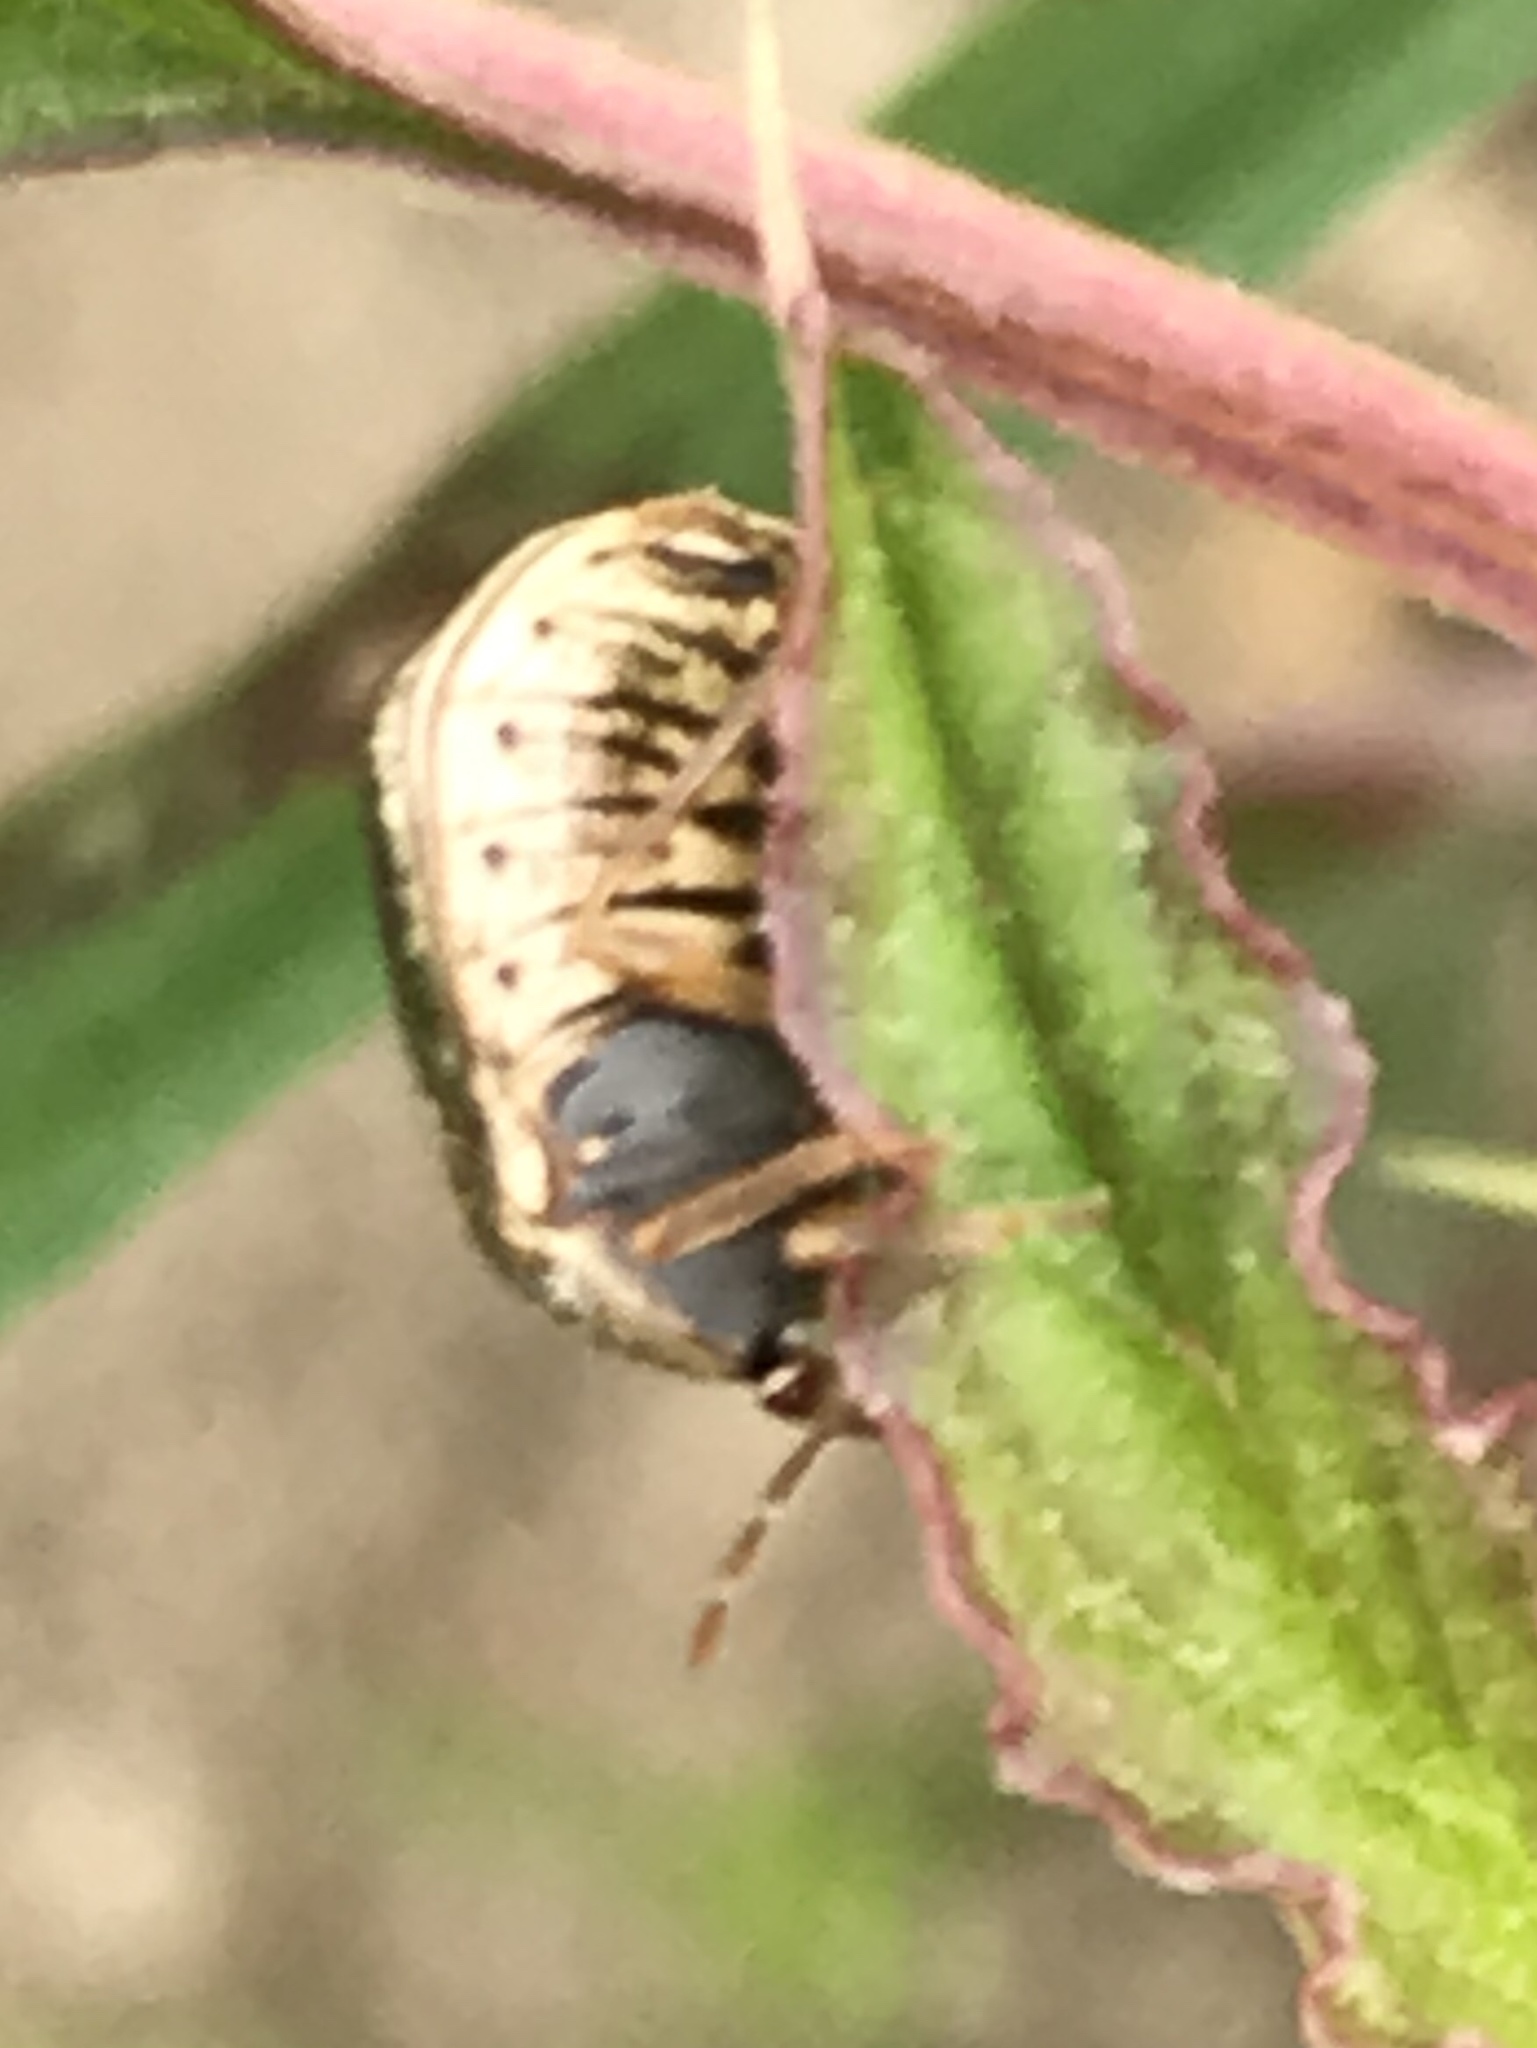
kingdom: Animalia
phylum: Arthropoda
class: Insecta
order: Hemiptera
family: Plataspidae
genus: Megacopta
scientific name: Megacopta cribraria
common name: Bean plataspid
